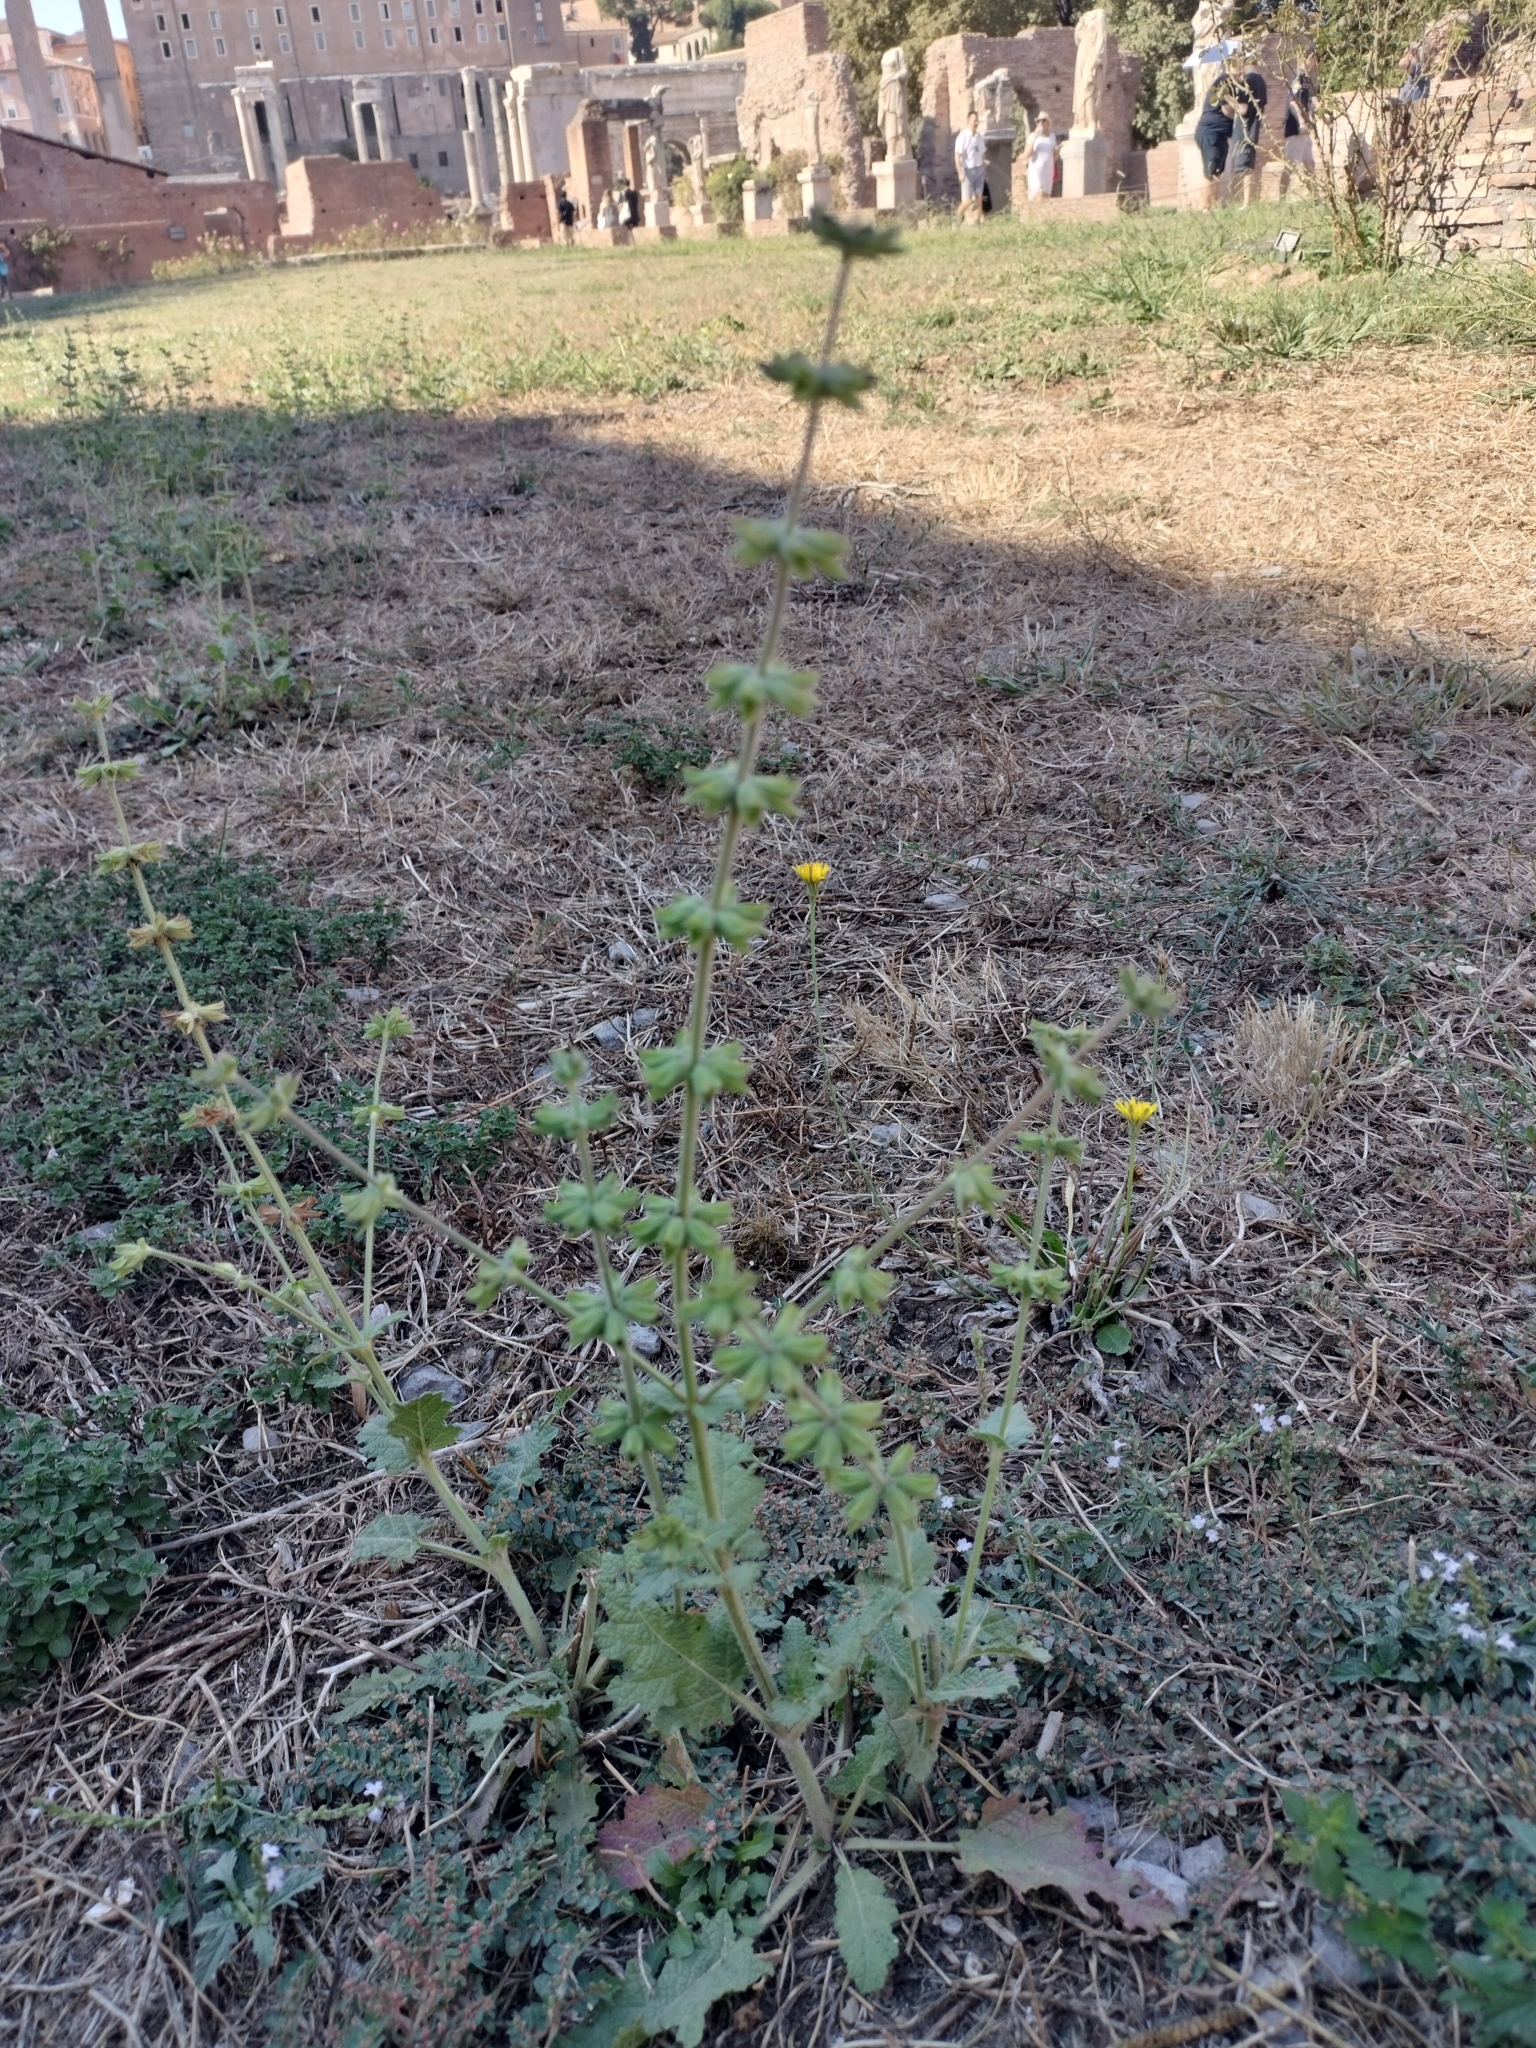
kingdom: Plantae
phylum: Tracheophyta
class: Magnoliopsida
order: Lamiales
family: Lamiaceae
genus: Salvia
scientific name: Salvia verbenaca
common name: Wild clary
